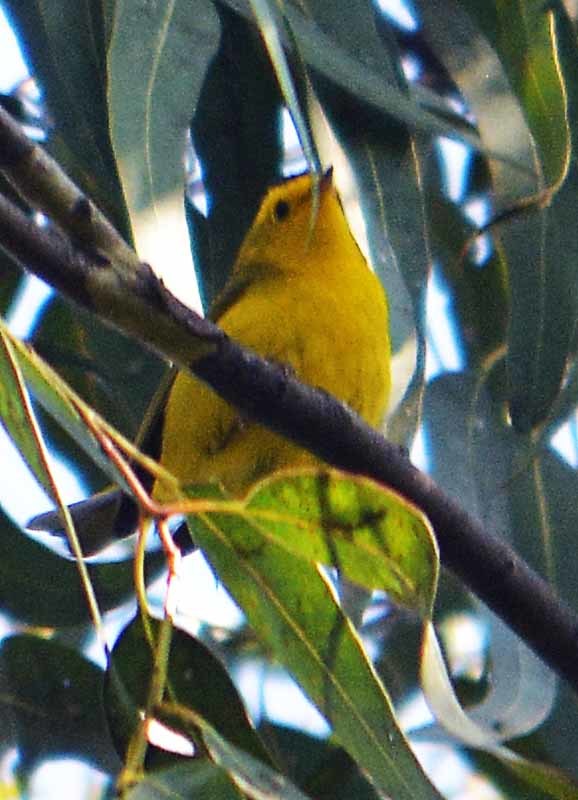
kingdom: Animalia
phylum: Chordata
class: Aves
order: Passeriformes
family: Parulidae
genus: Cardellina
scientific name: Cardellina pusilla
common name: Wilson's warbler
